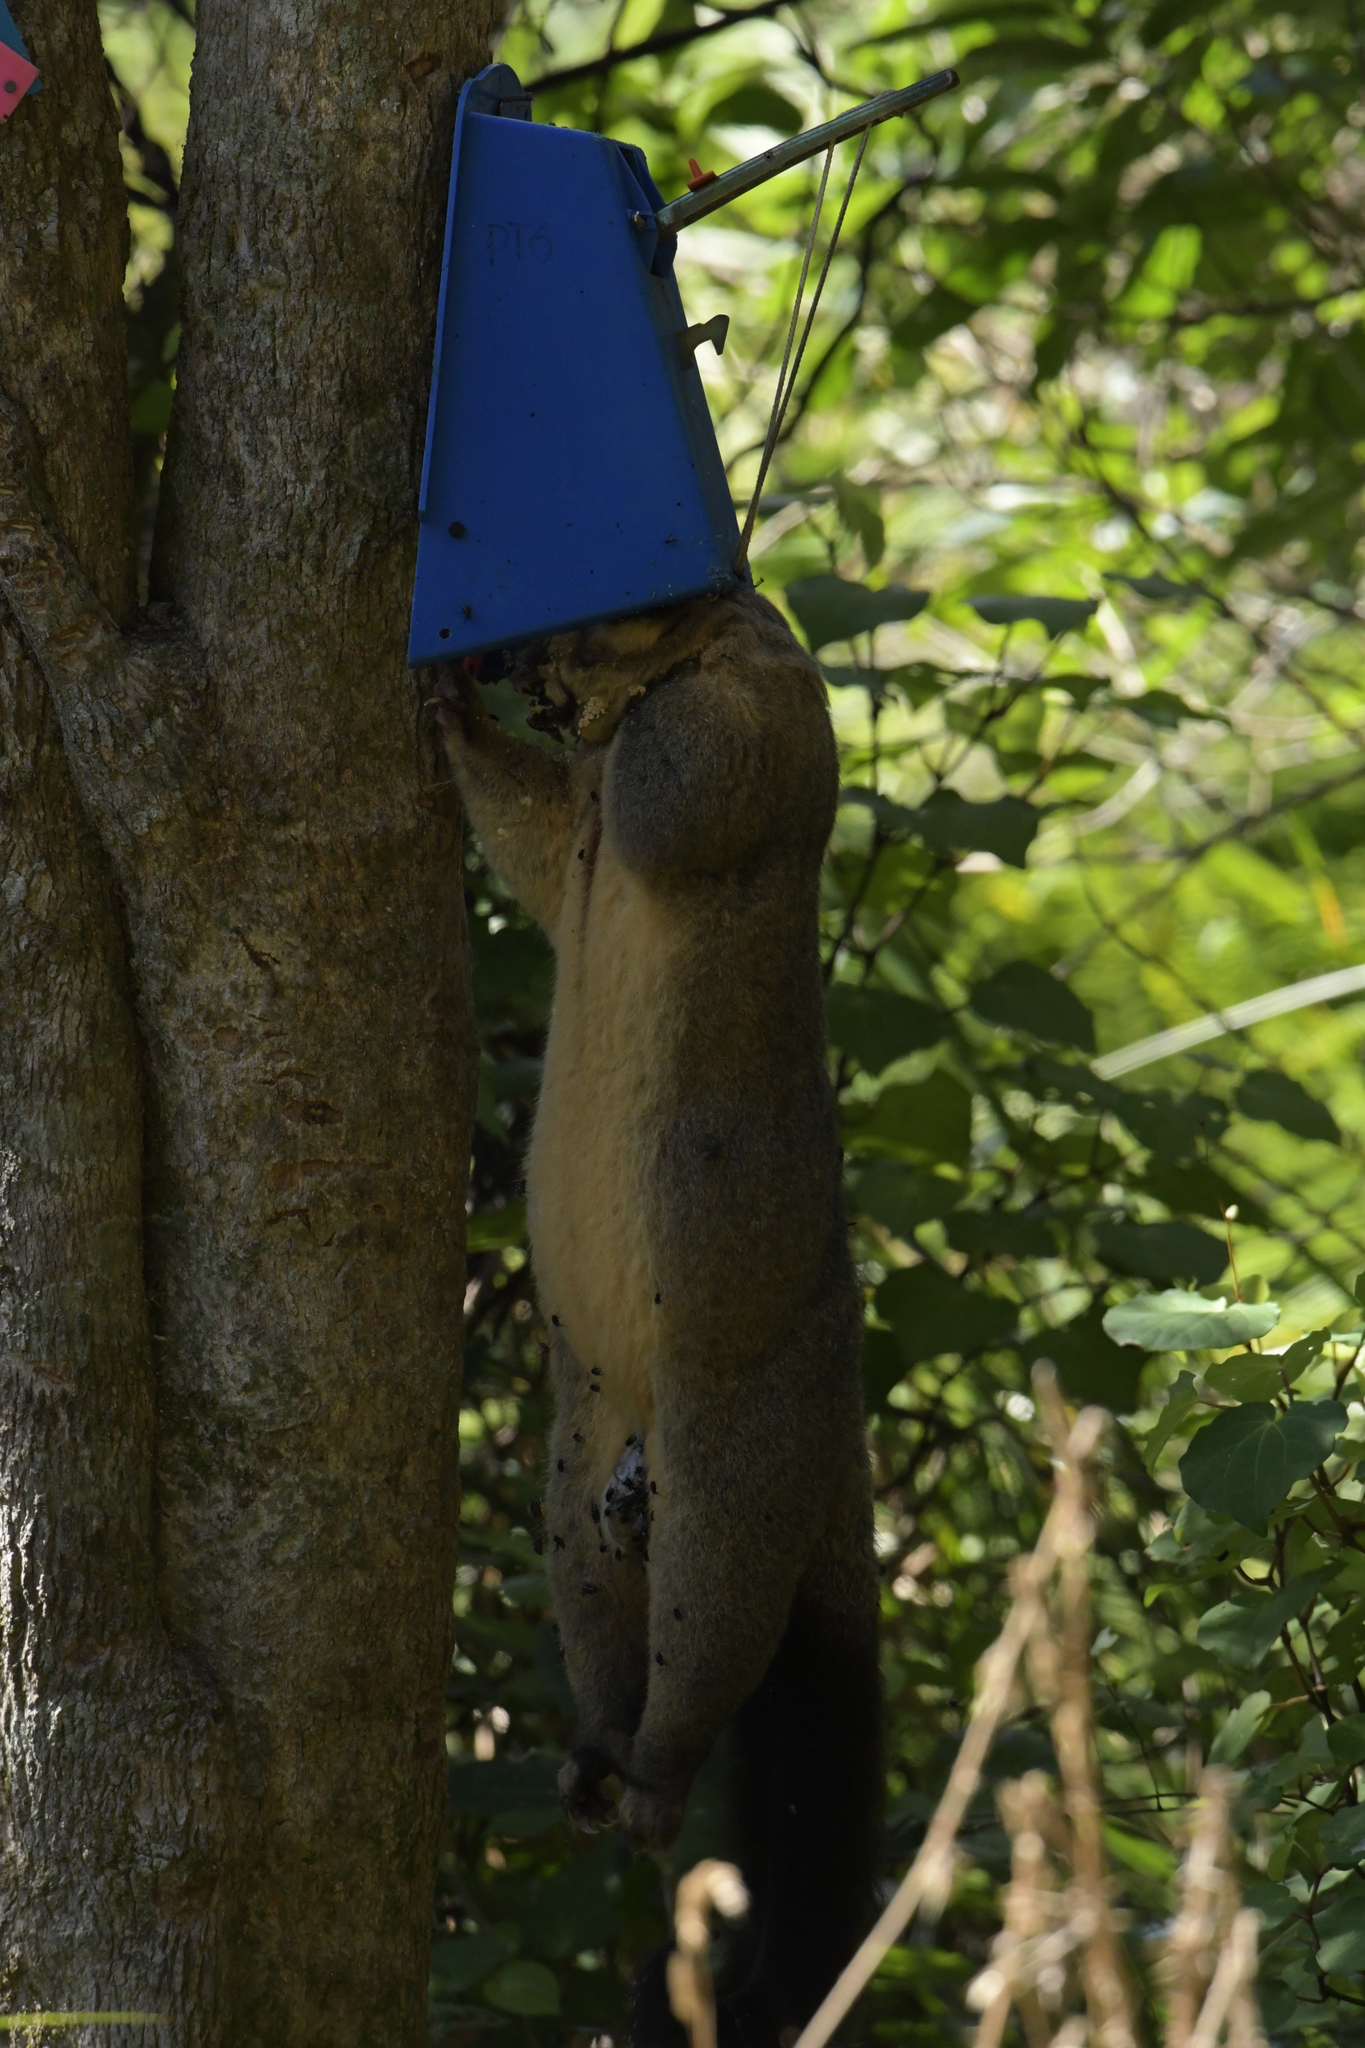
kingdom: Animalia
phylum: Chordata
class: Mammalia
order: Diprotodontia
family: Phalangeridae
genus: Trichosurus
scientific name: Trichosurus vulpecula
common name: Common brushtail
